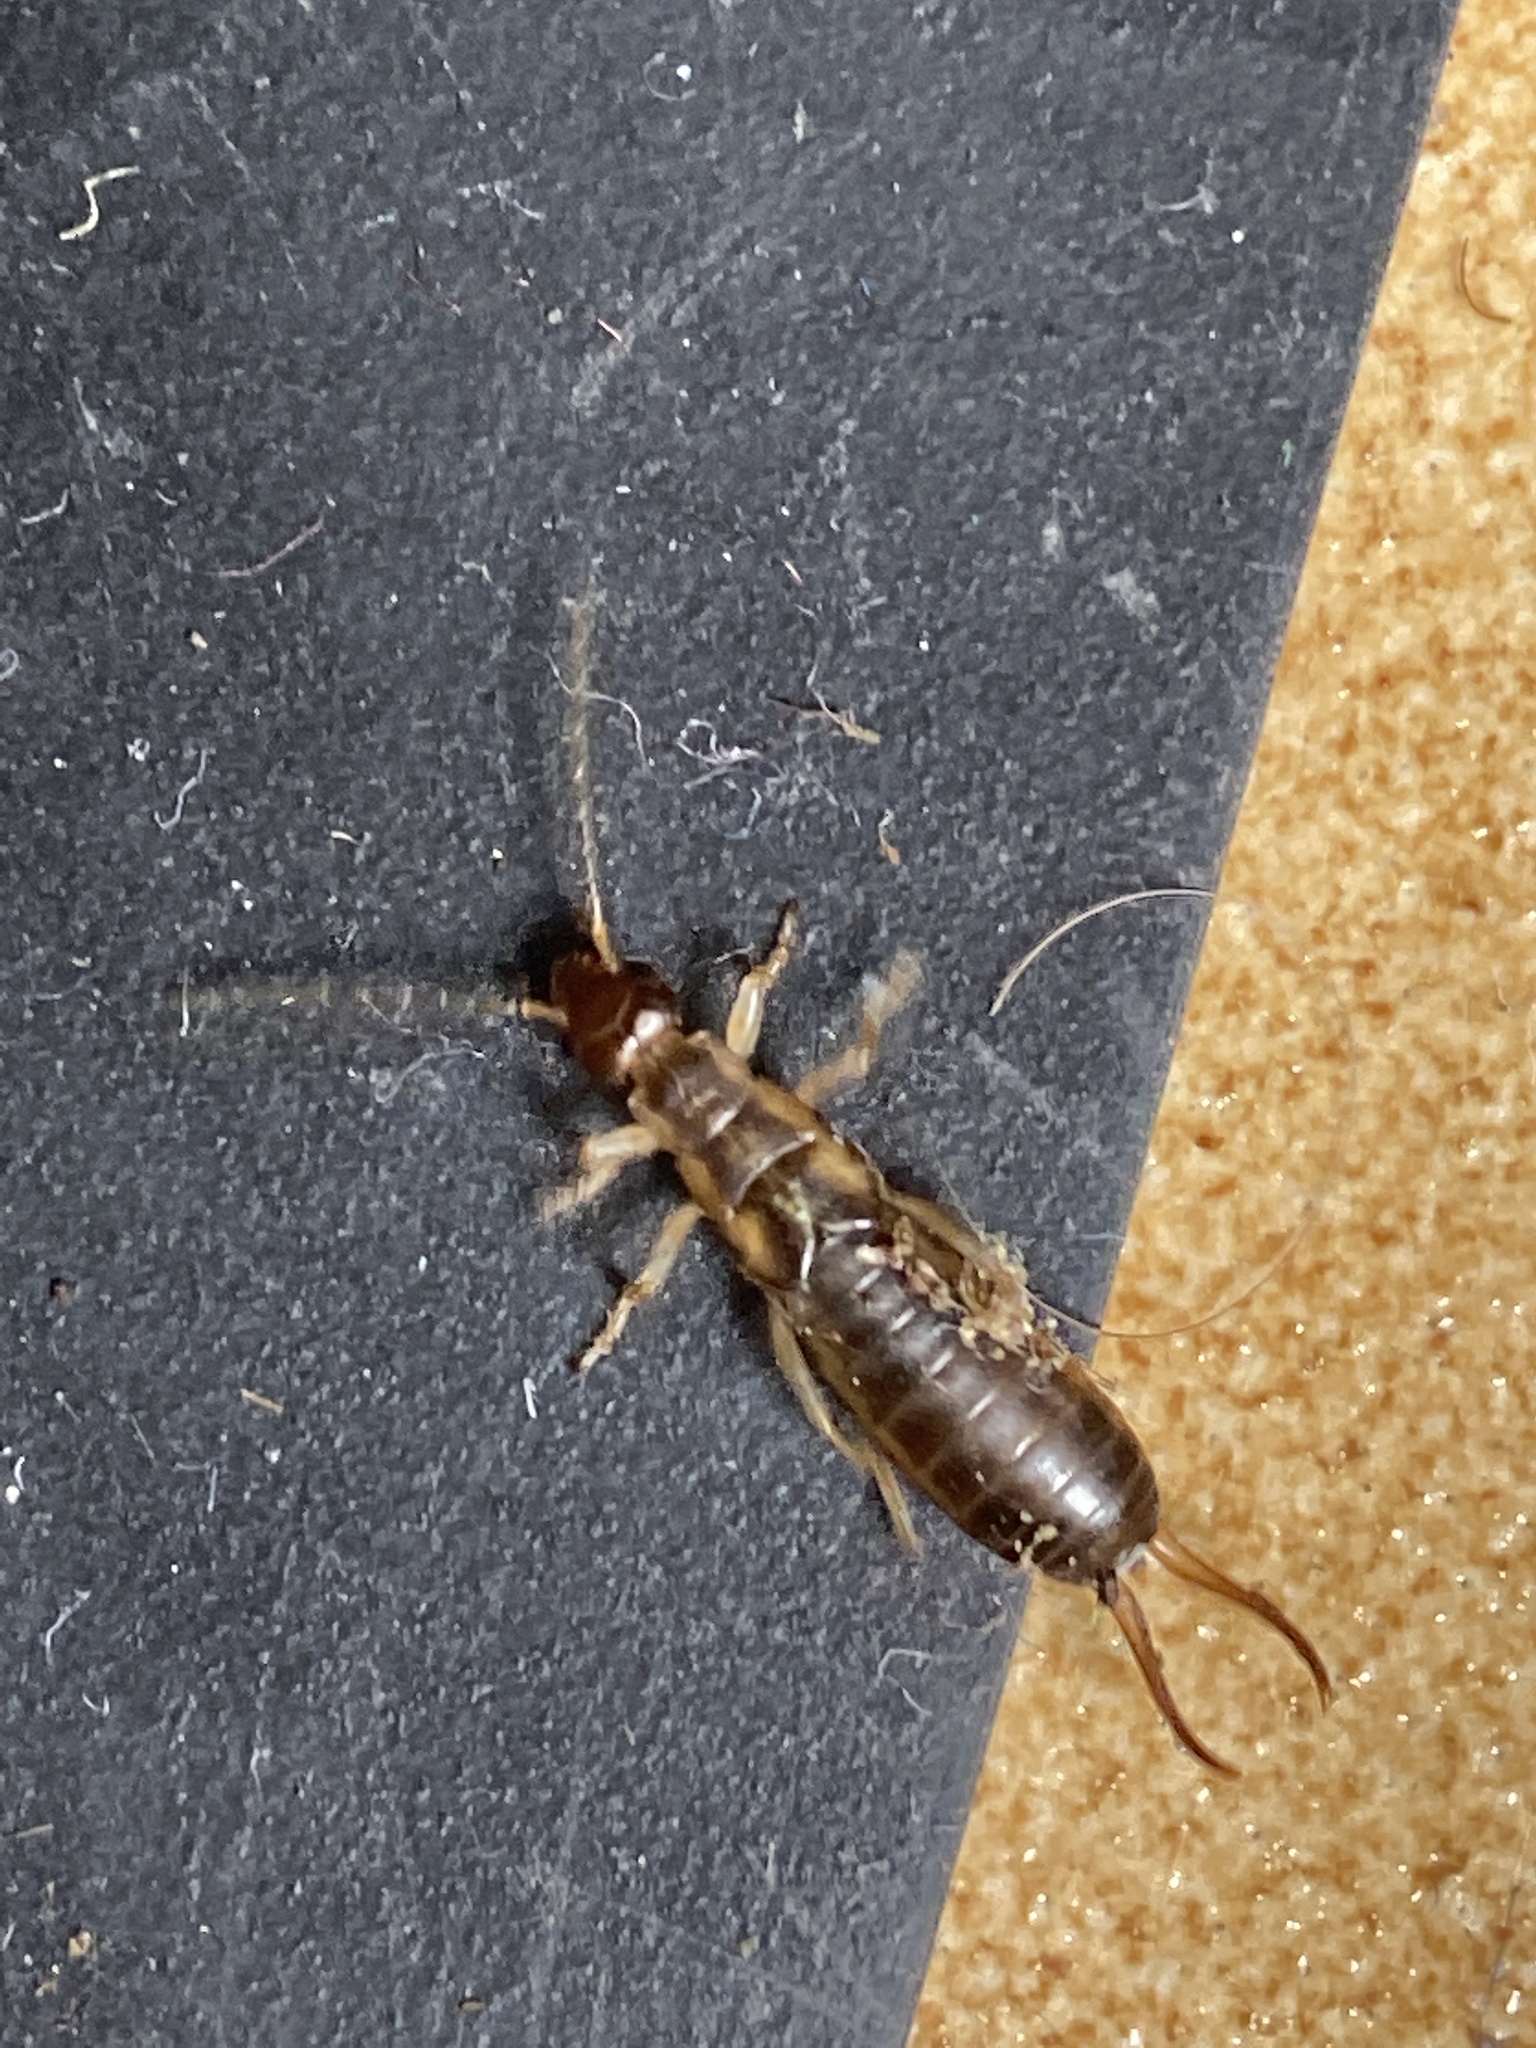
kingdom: Animalia
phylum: Arthropoda
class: Insecta
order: Dermaptera
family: Forficulidae
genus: Forficula
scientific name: Forficula
